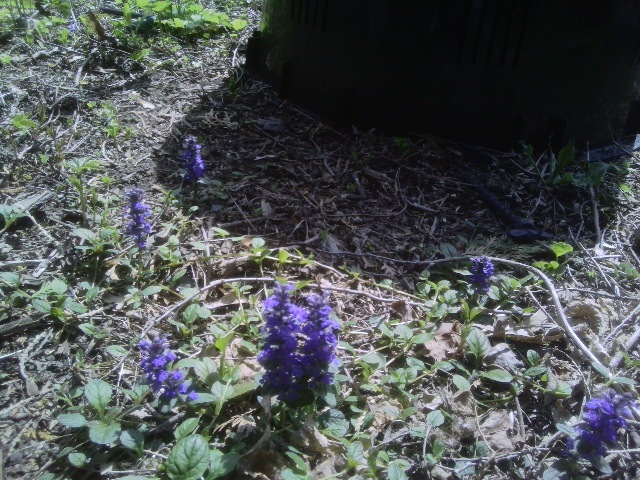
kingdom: Plantae
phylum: Tracheophyta
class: Magnoliopsida
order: Lamiales
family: Lamiaceae
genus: Ajuga
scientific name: Ajuga reptans
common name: Bugle
